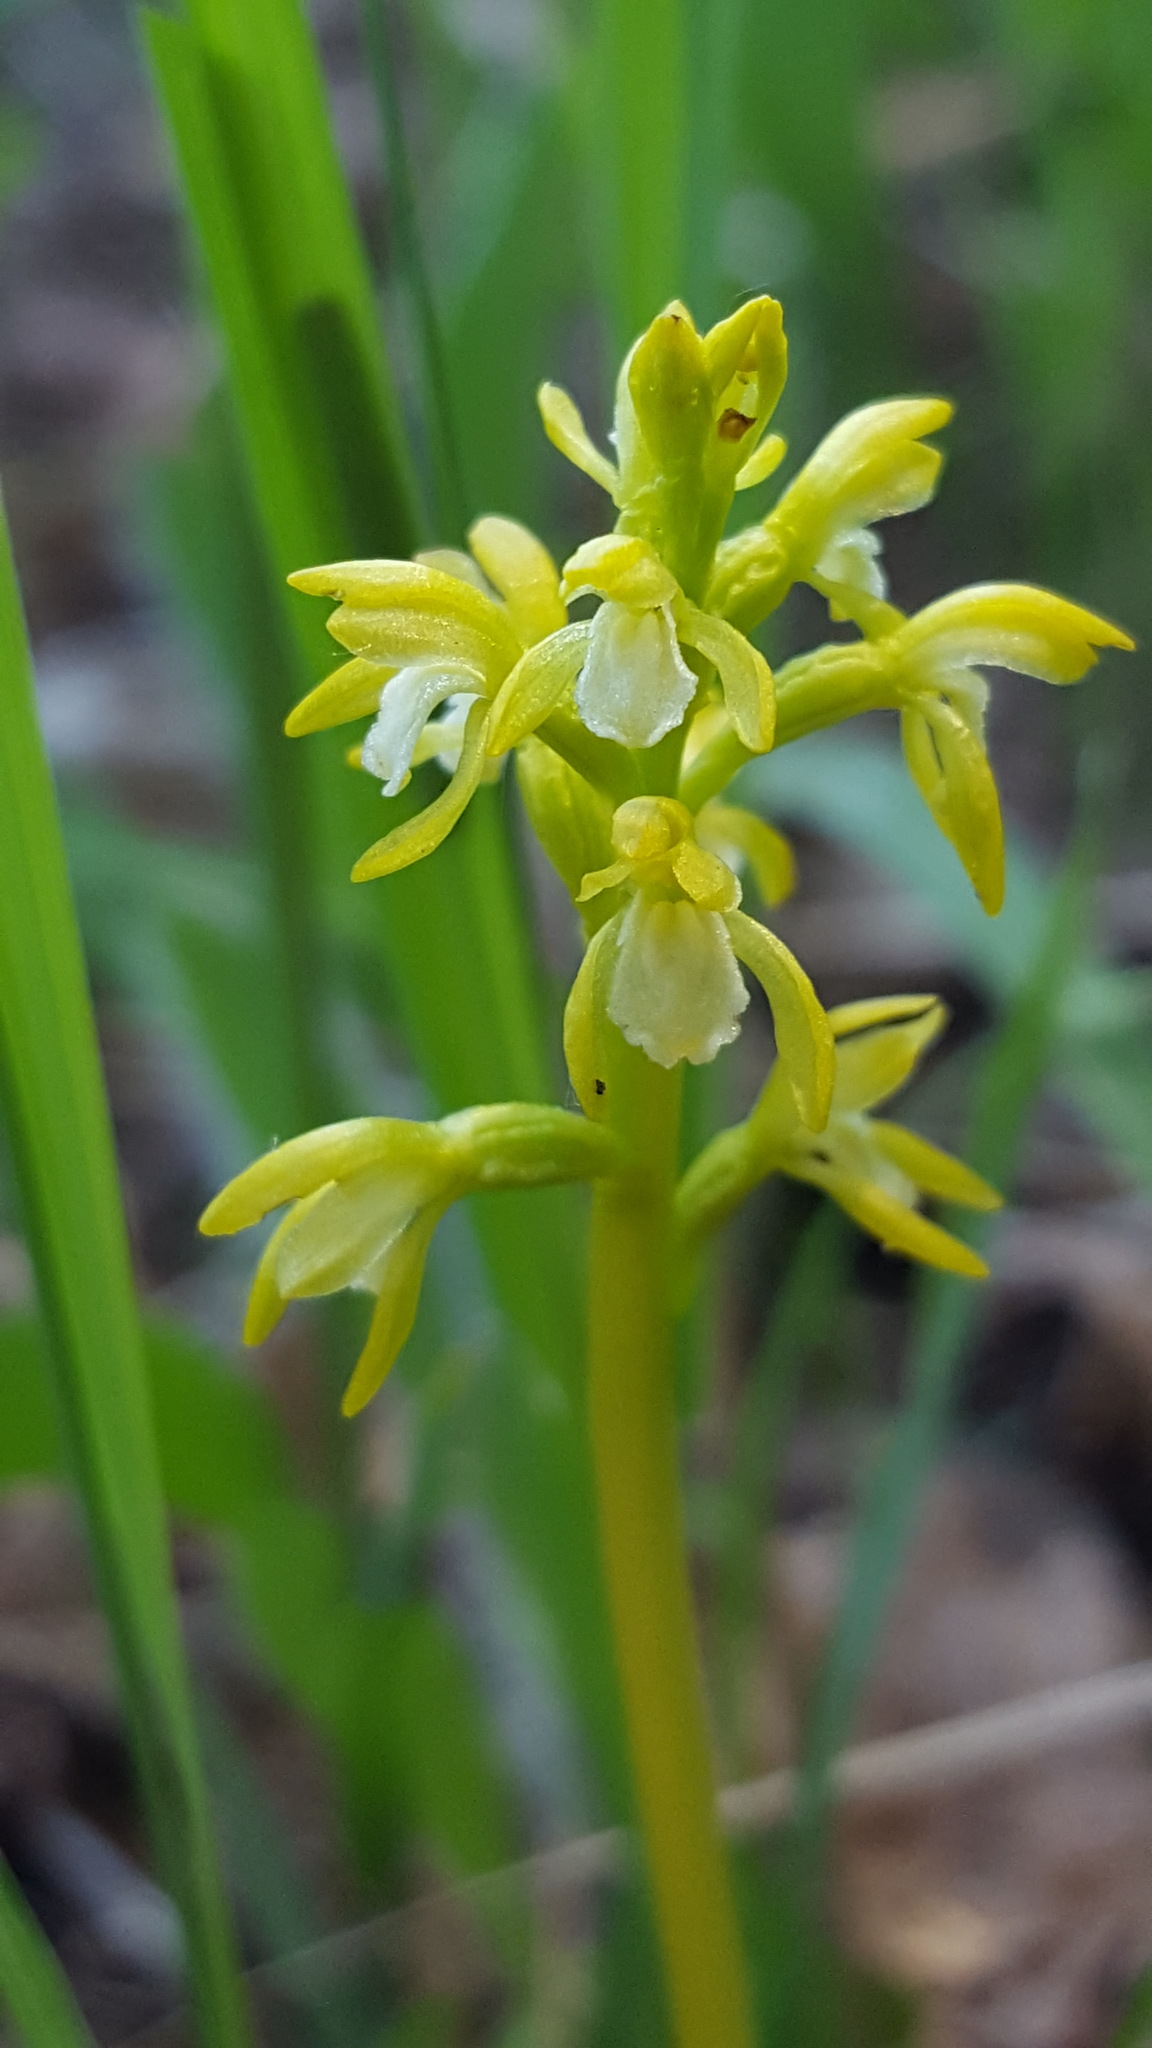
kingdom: Plantae
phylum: Tracheophyta
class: Liliopsida
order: Asparagales
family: Orchidaceae
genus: Corallorhiza
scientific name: Corallorhiza trifida
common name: Yellow coralroot
